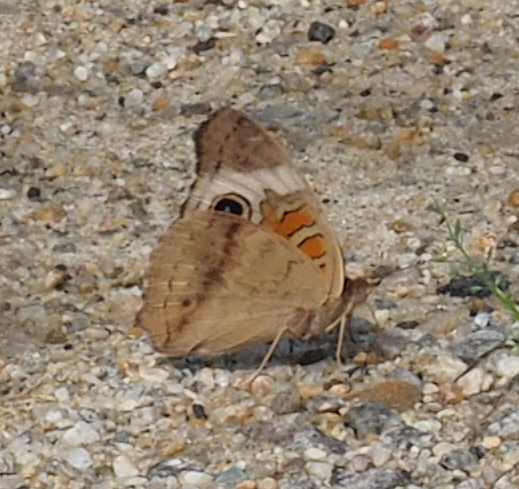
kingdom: Animalia
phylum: Arthropoda
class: Insecta
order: Lepidoptera
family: Nymphalidae
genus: Junonia
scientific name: Junonia coenia
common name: Common buckeye
